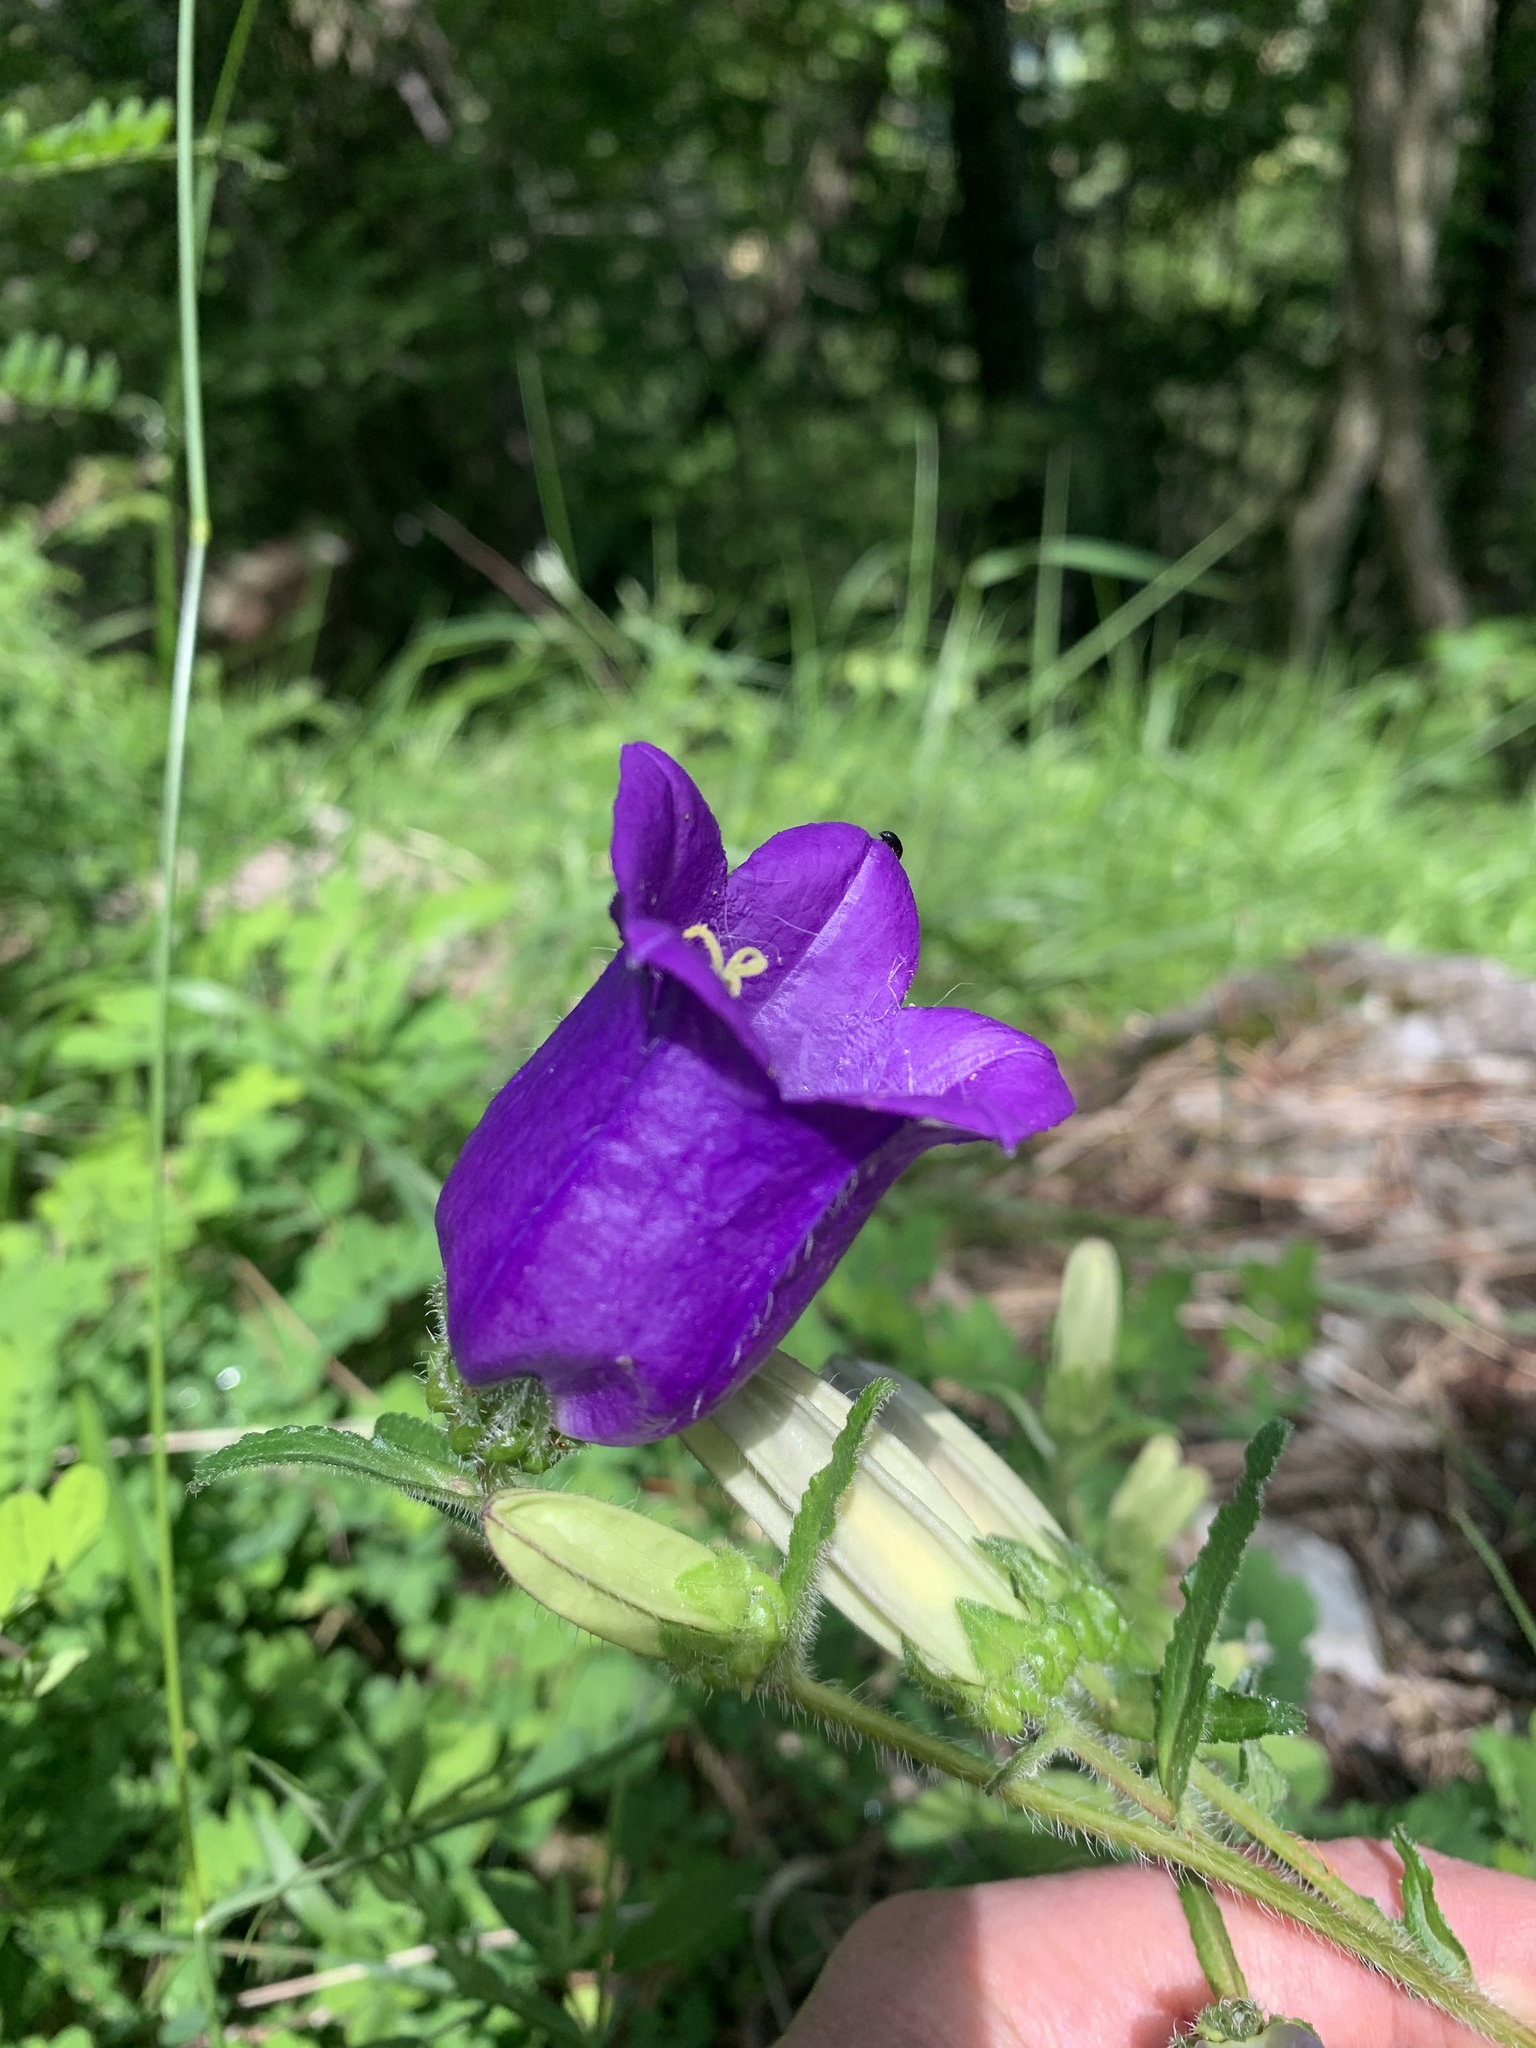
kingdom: Plantae
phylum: Tracheophyta
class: Magnoliopsida
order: Asterales
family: Campanulaceae
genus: Campanula
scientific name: Campanula medium
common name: Canterbury bells
